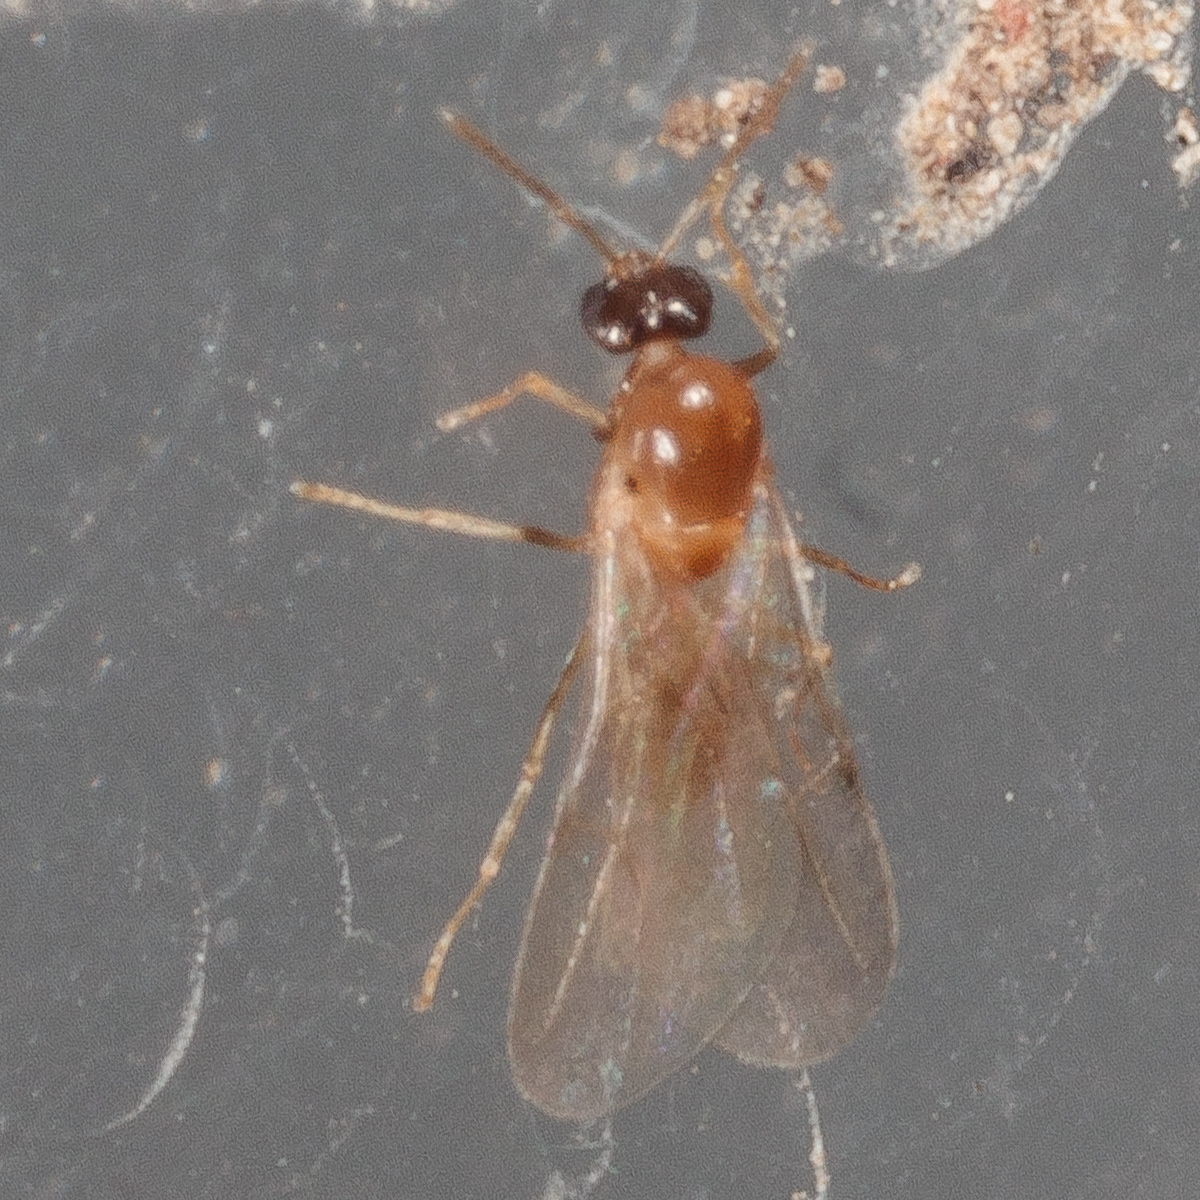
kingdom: Animalia
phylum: Arthropoda
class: Insecta
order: Hymenoptera
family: Formicidae
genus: Brachymyrmex
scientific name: Brachymyrmex patagonicus
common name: Dark rover ant
